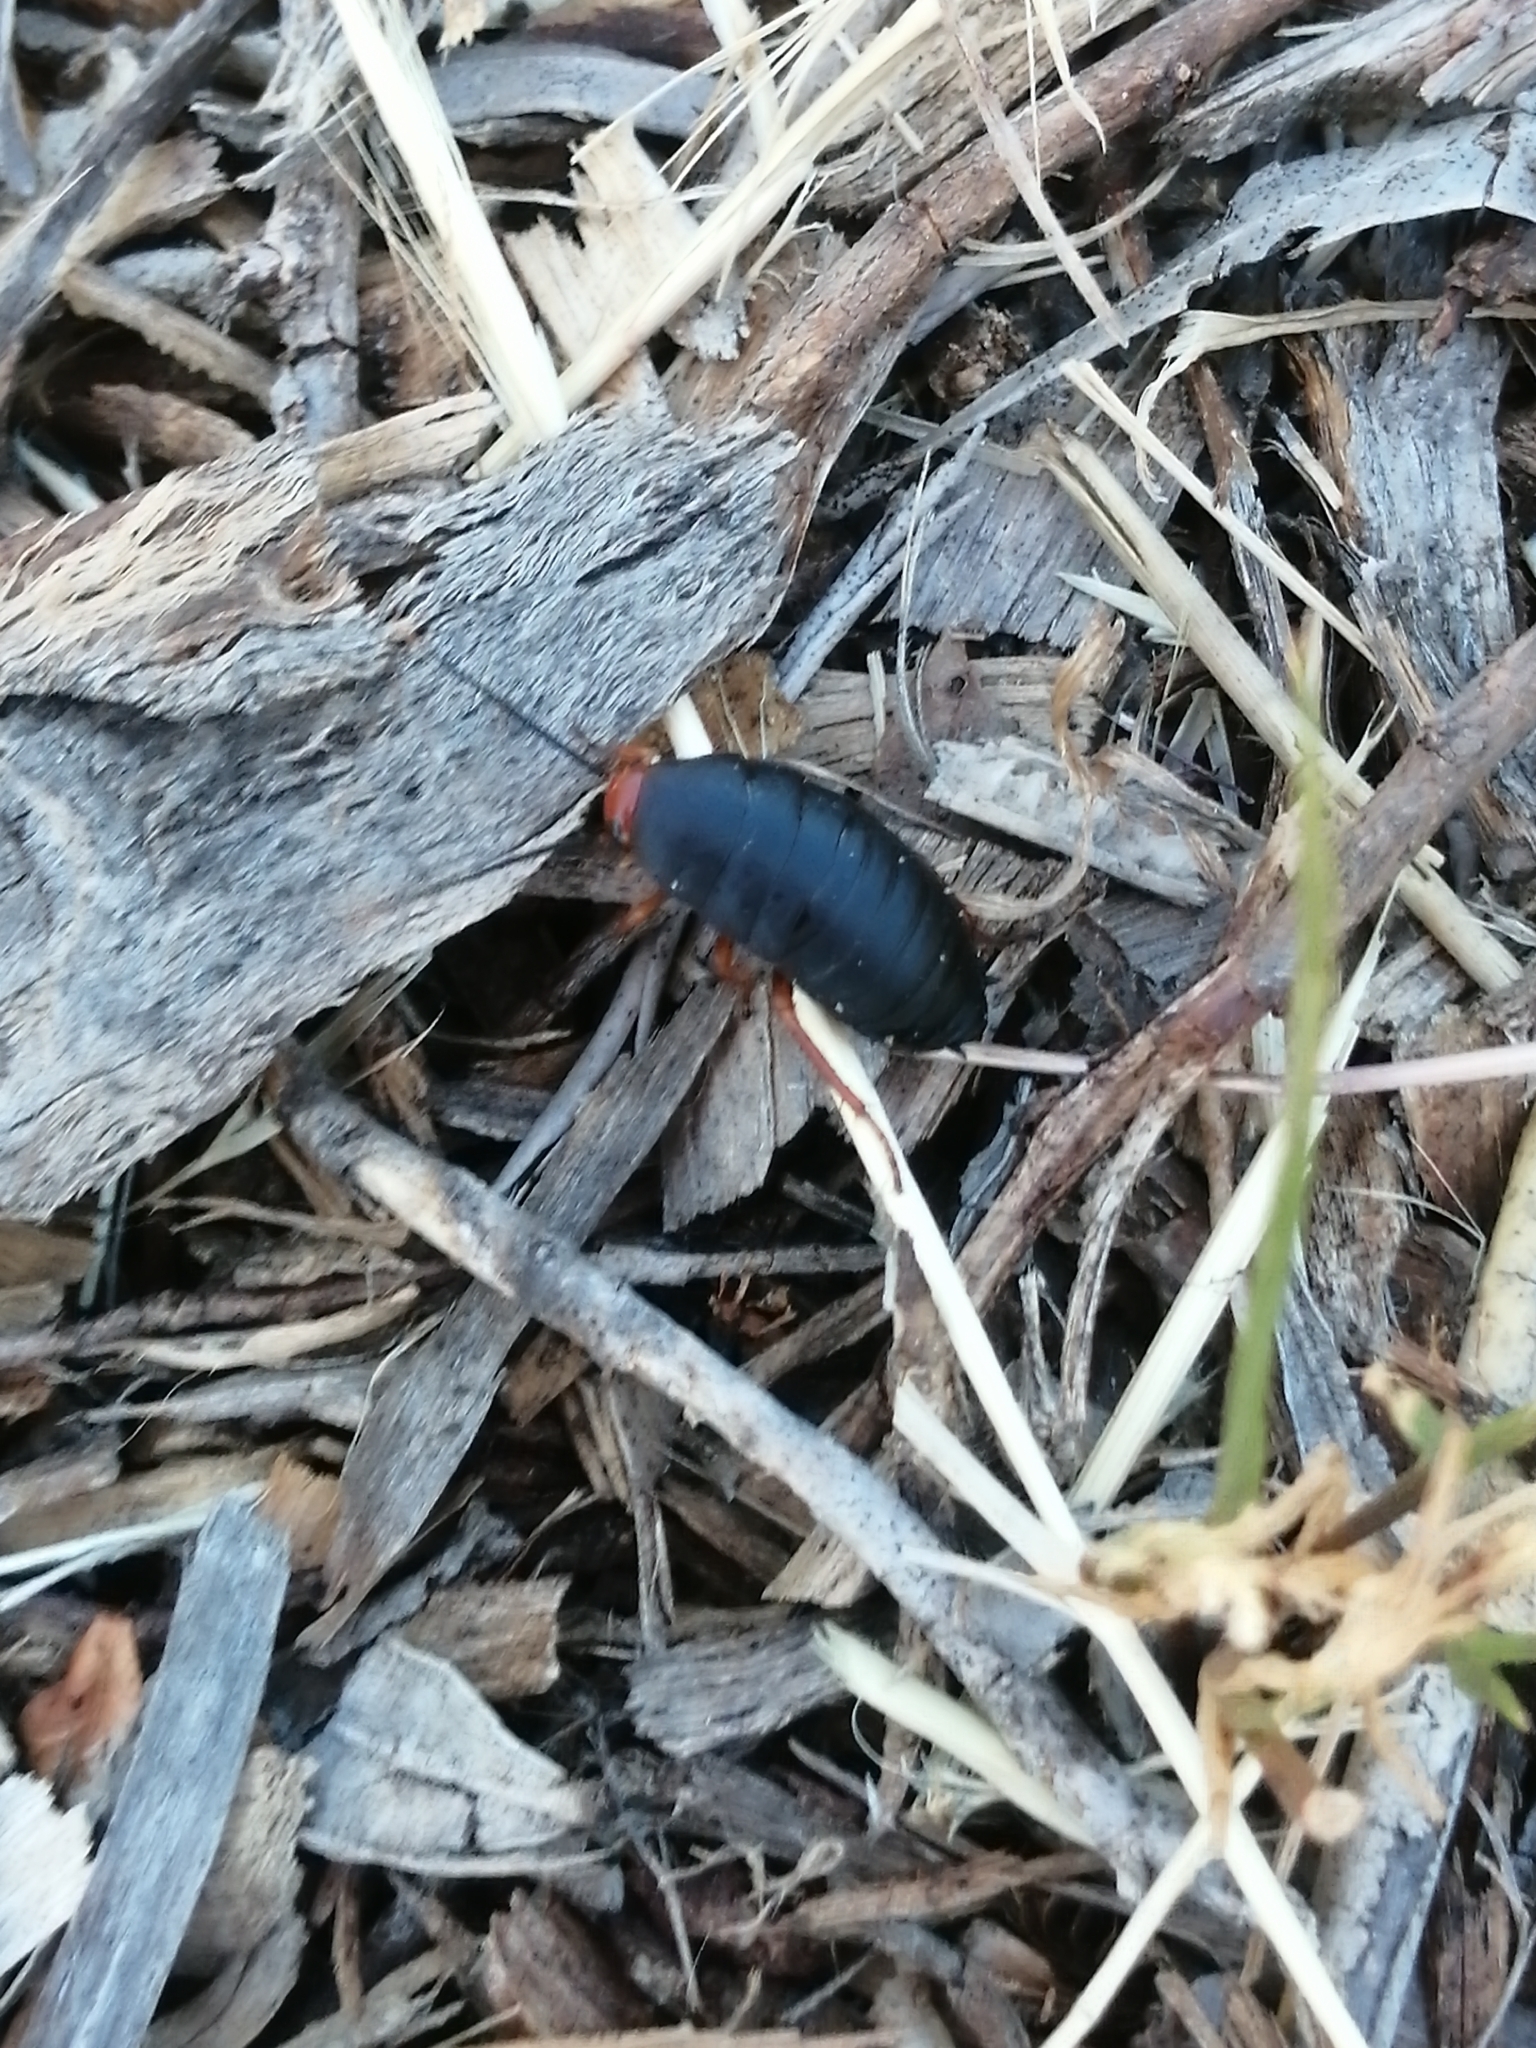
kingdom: Animalia
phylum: Arthropoda
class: Insecta
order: Blattodea
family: Blattidae
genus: Deropeltis
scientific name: Deropeltis erythrocephala
